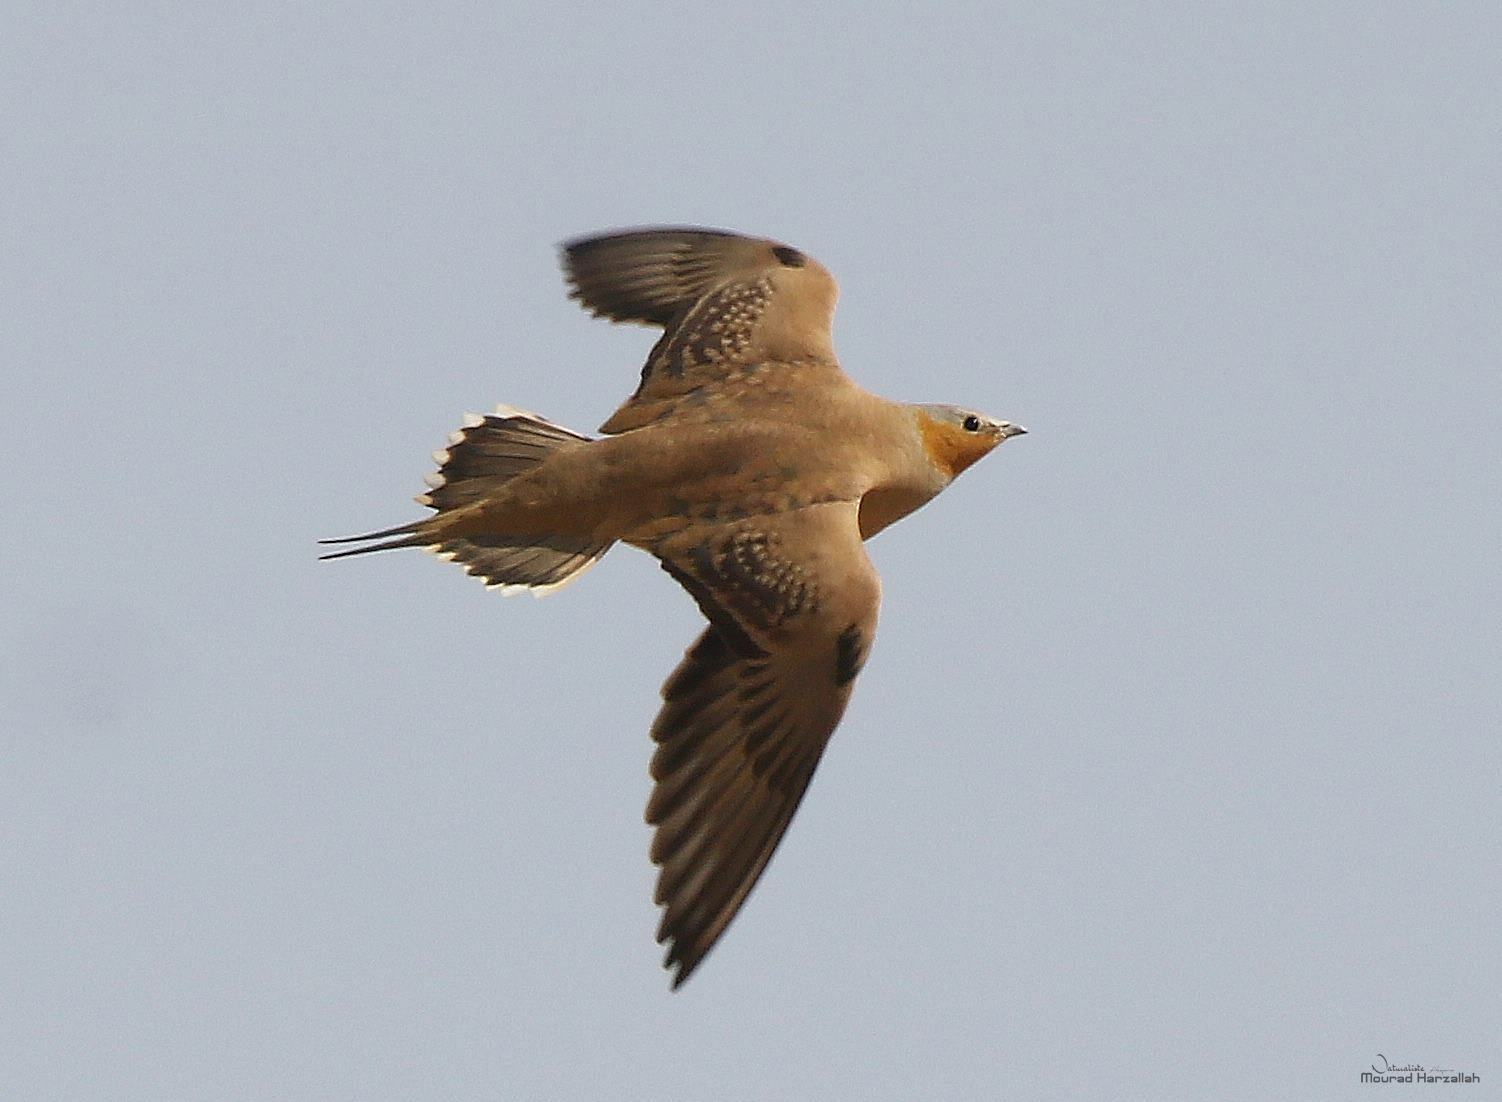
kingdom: Animalia
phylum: Chordata
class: Aves
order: Pteroclidiformes
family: Pteroclididae
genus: Pterocles
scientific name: Pterocles senegallus
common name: Spotted sandgrouse
